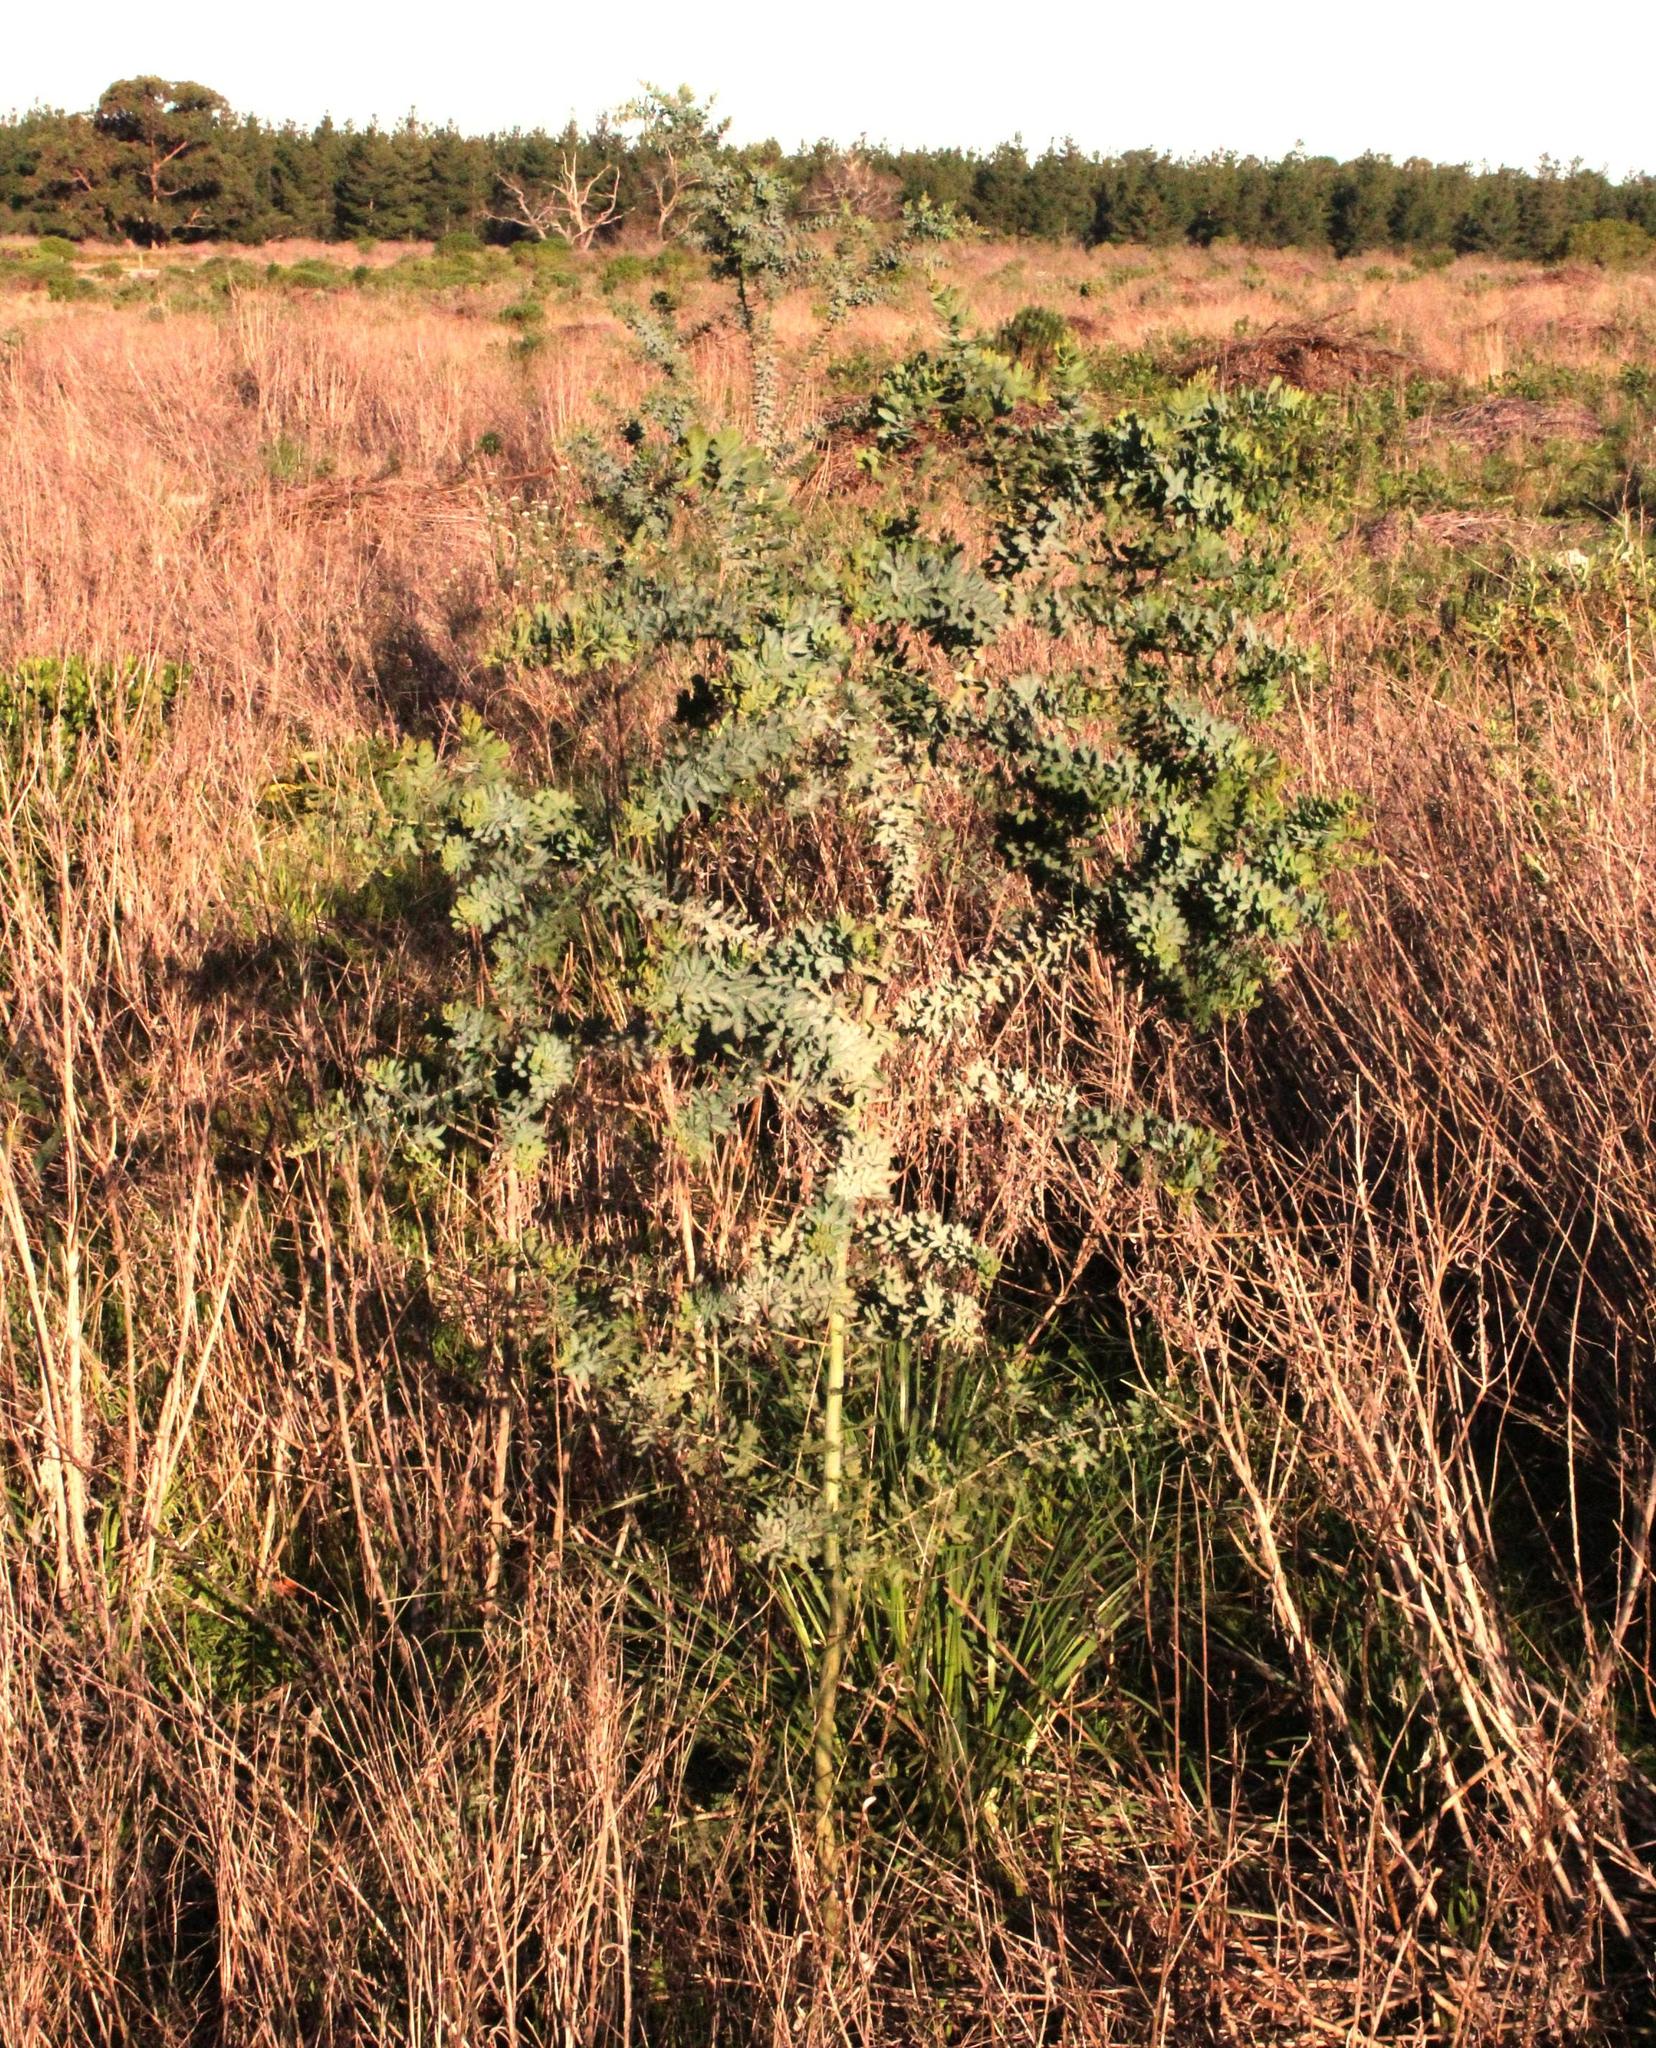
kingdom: Plantae
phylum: Tracheophyta
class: Magnoliopsida
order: Fabales
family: Fabaceae
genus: Acacia
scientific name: Acacia baileyana
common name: Cootamundra wattle
